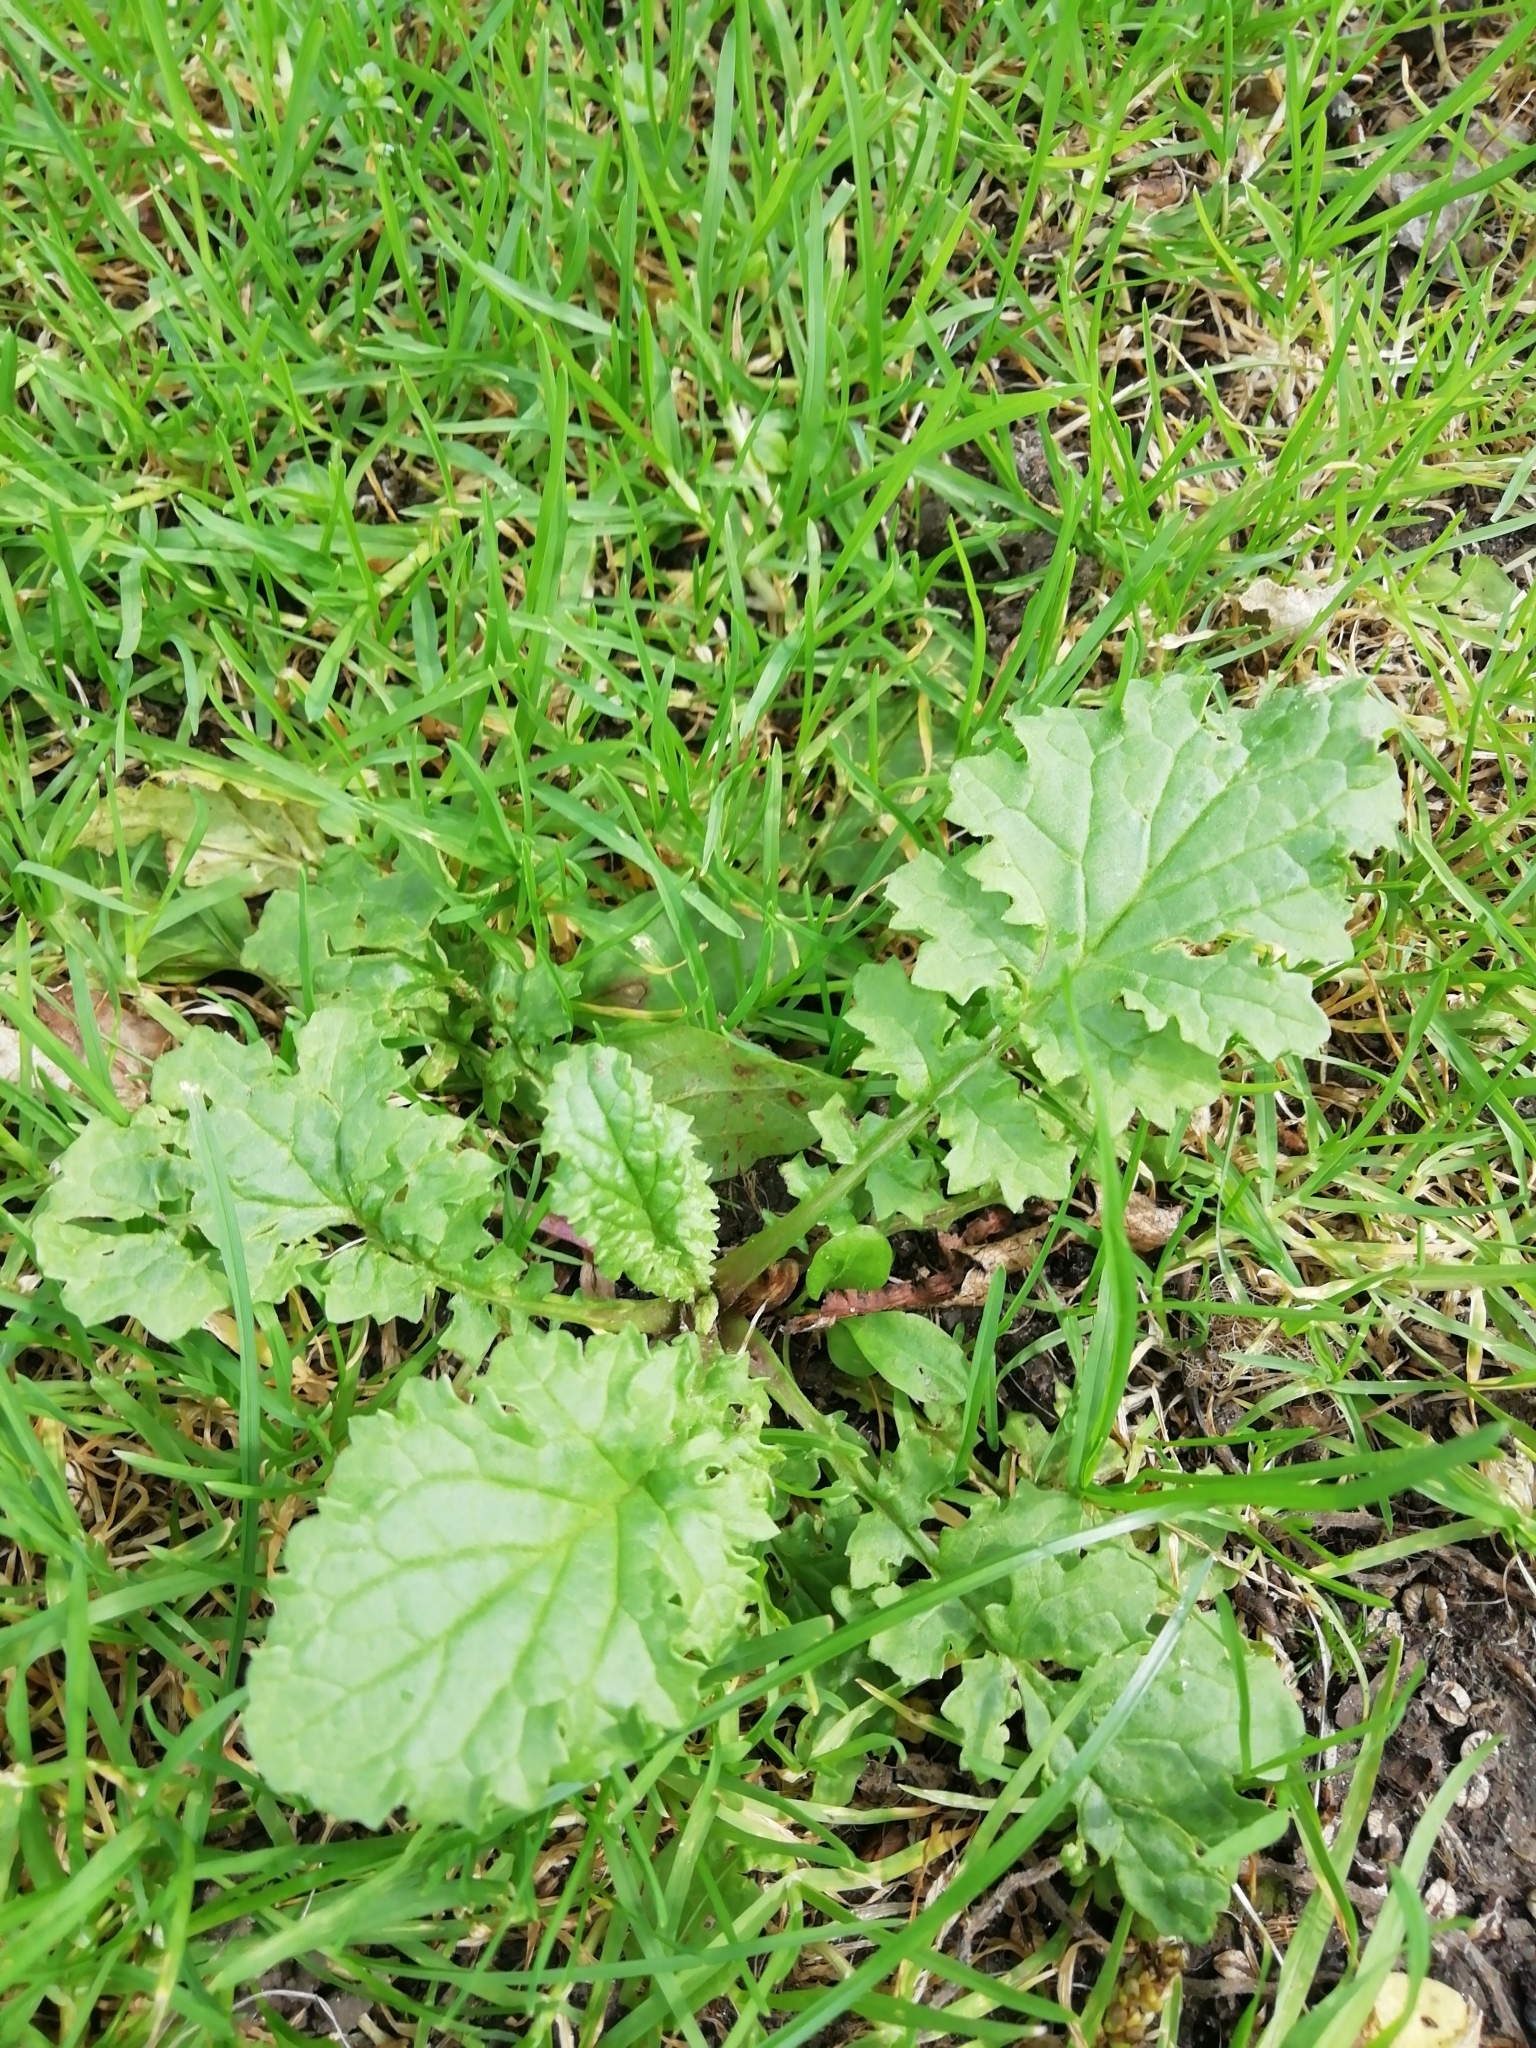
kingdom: Plantae
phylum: Tracheophyta
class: Magnoliopsida
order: Asterales
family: Asteraceae
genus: Jacobaea
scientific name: Jacobaea vulgaris
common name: Stinking willie
